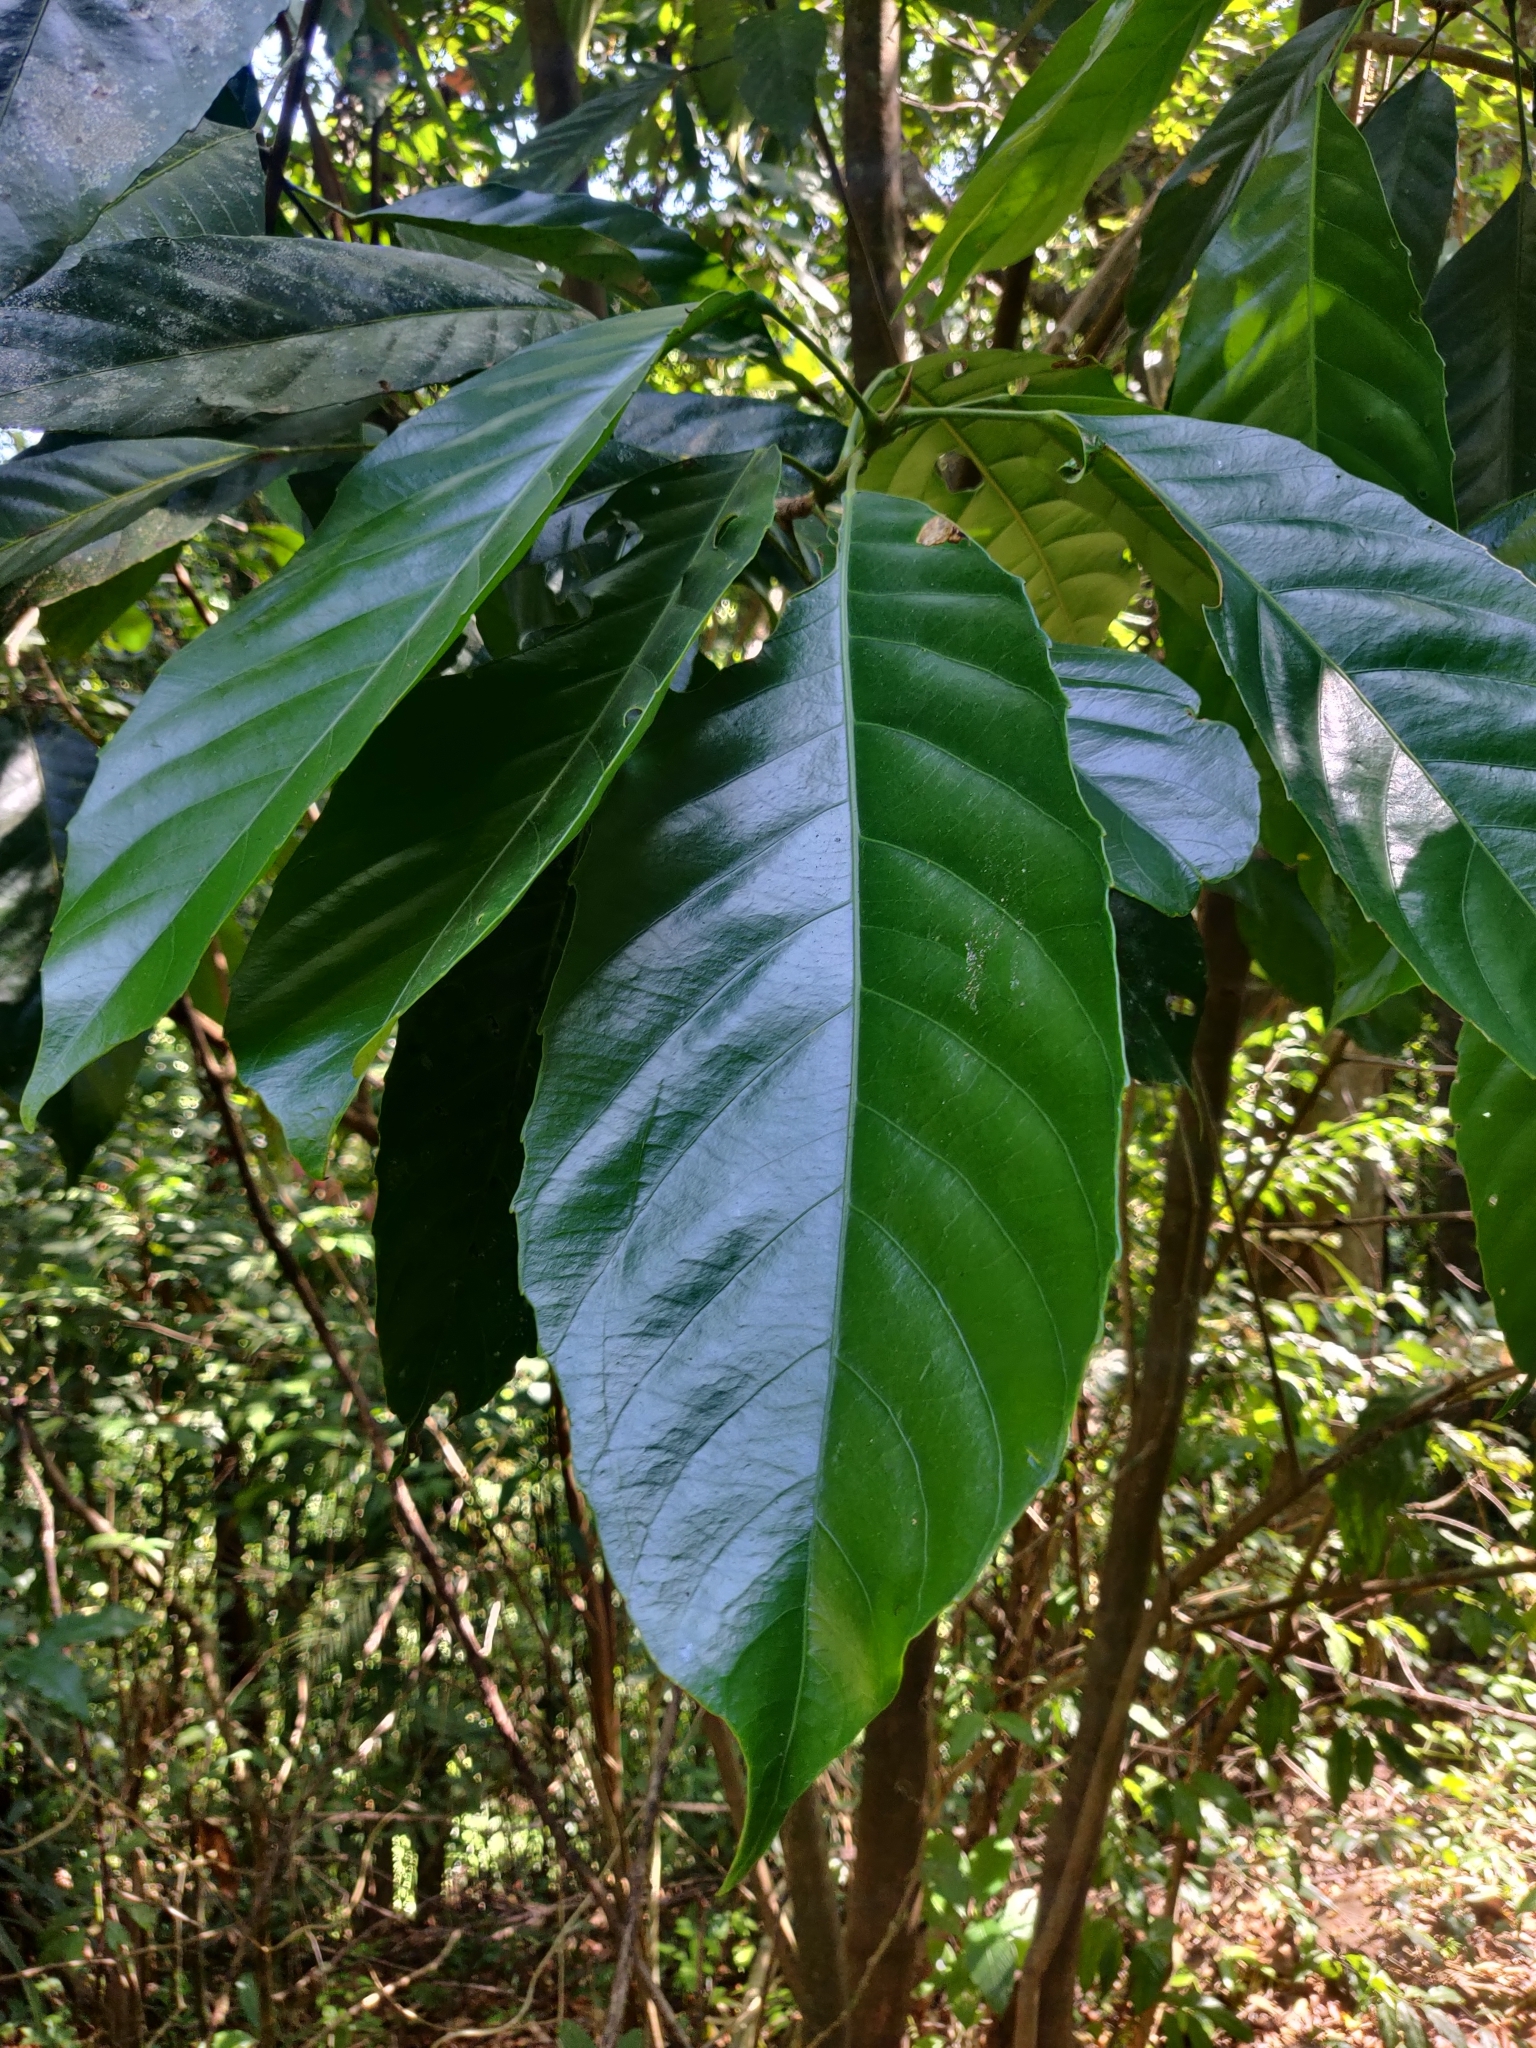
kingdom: Plantae
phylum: Tracheophyta
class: Magnoliopsida
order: Malpighiales
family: Euphorbiaceae
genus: Paracroton
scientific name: Paracroton pendulus
